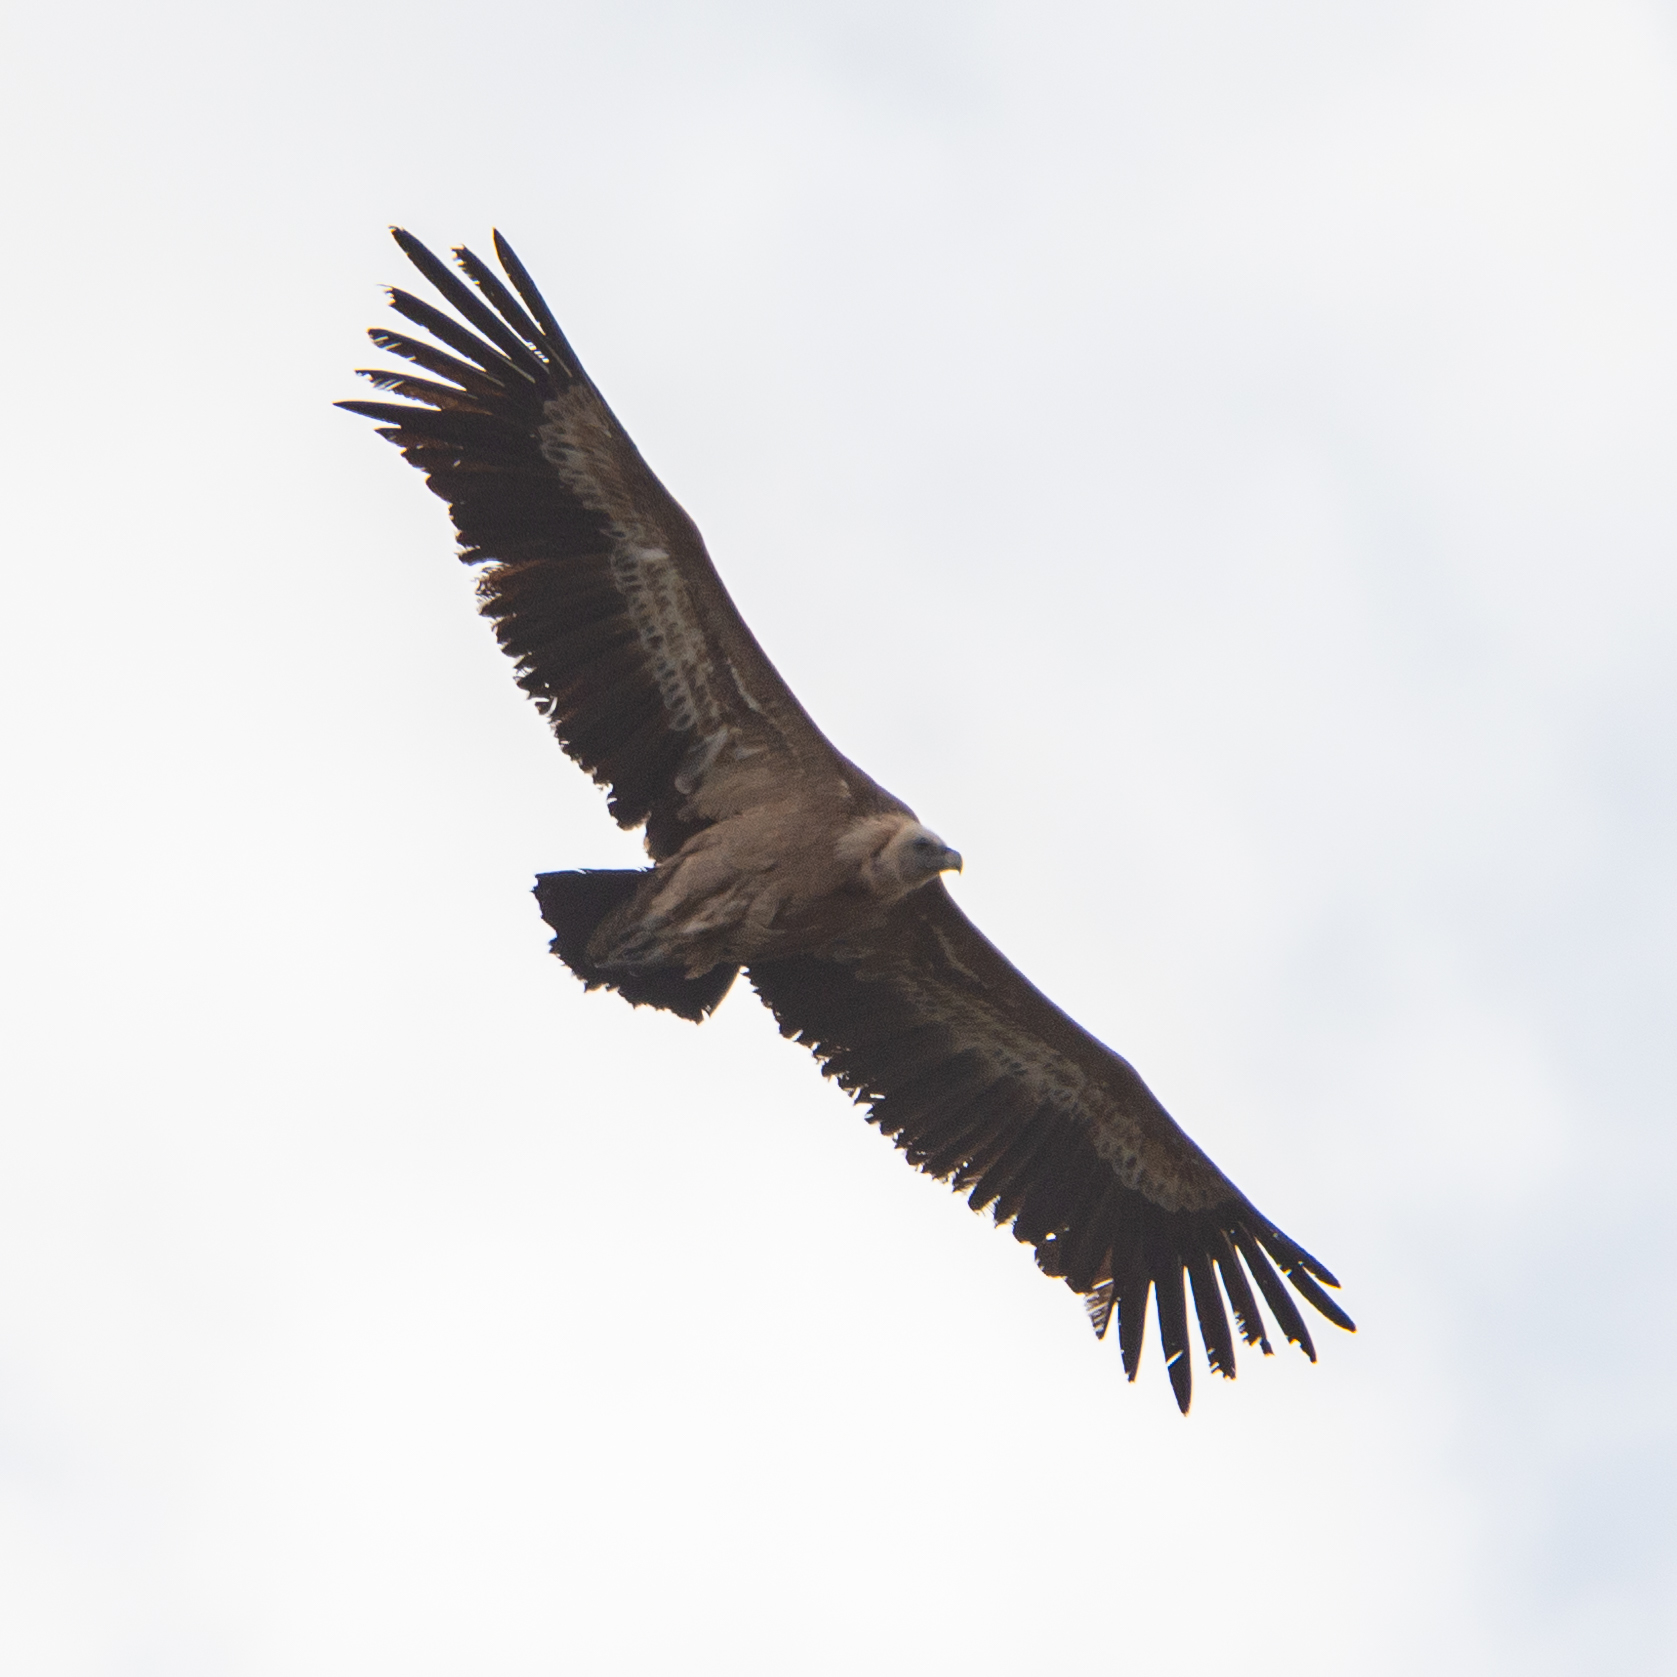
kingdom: Animalia
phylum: Chordata
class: Aves
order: Accipitriformes
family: Accipitridae
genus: Gyps
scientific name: Gyps fulvus
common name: Griffon vulture
